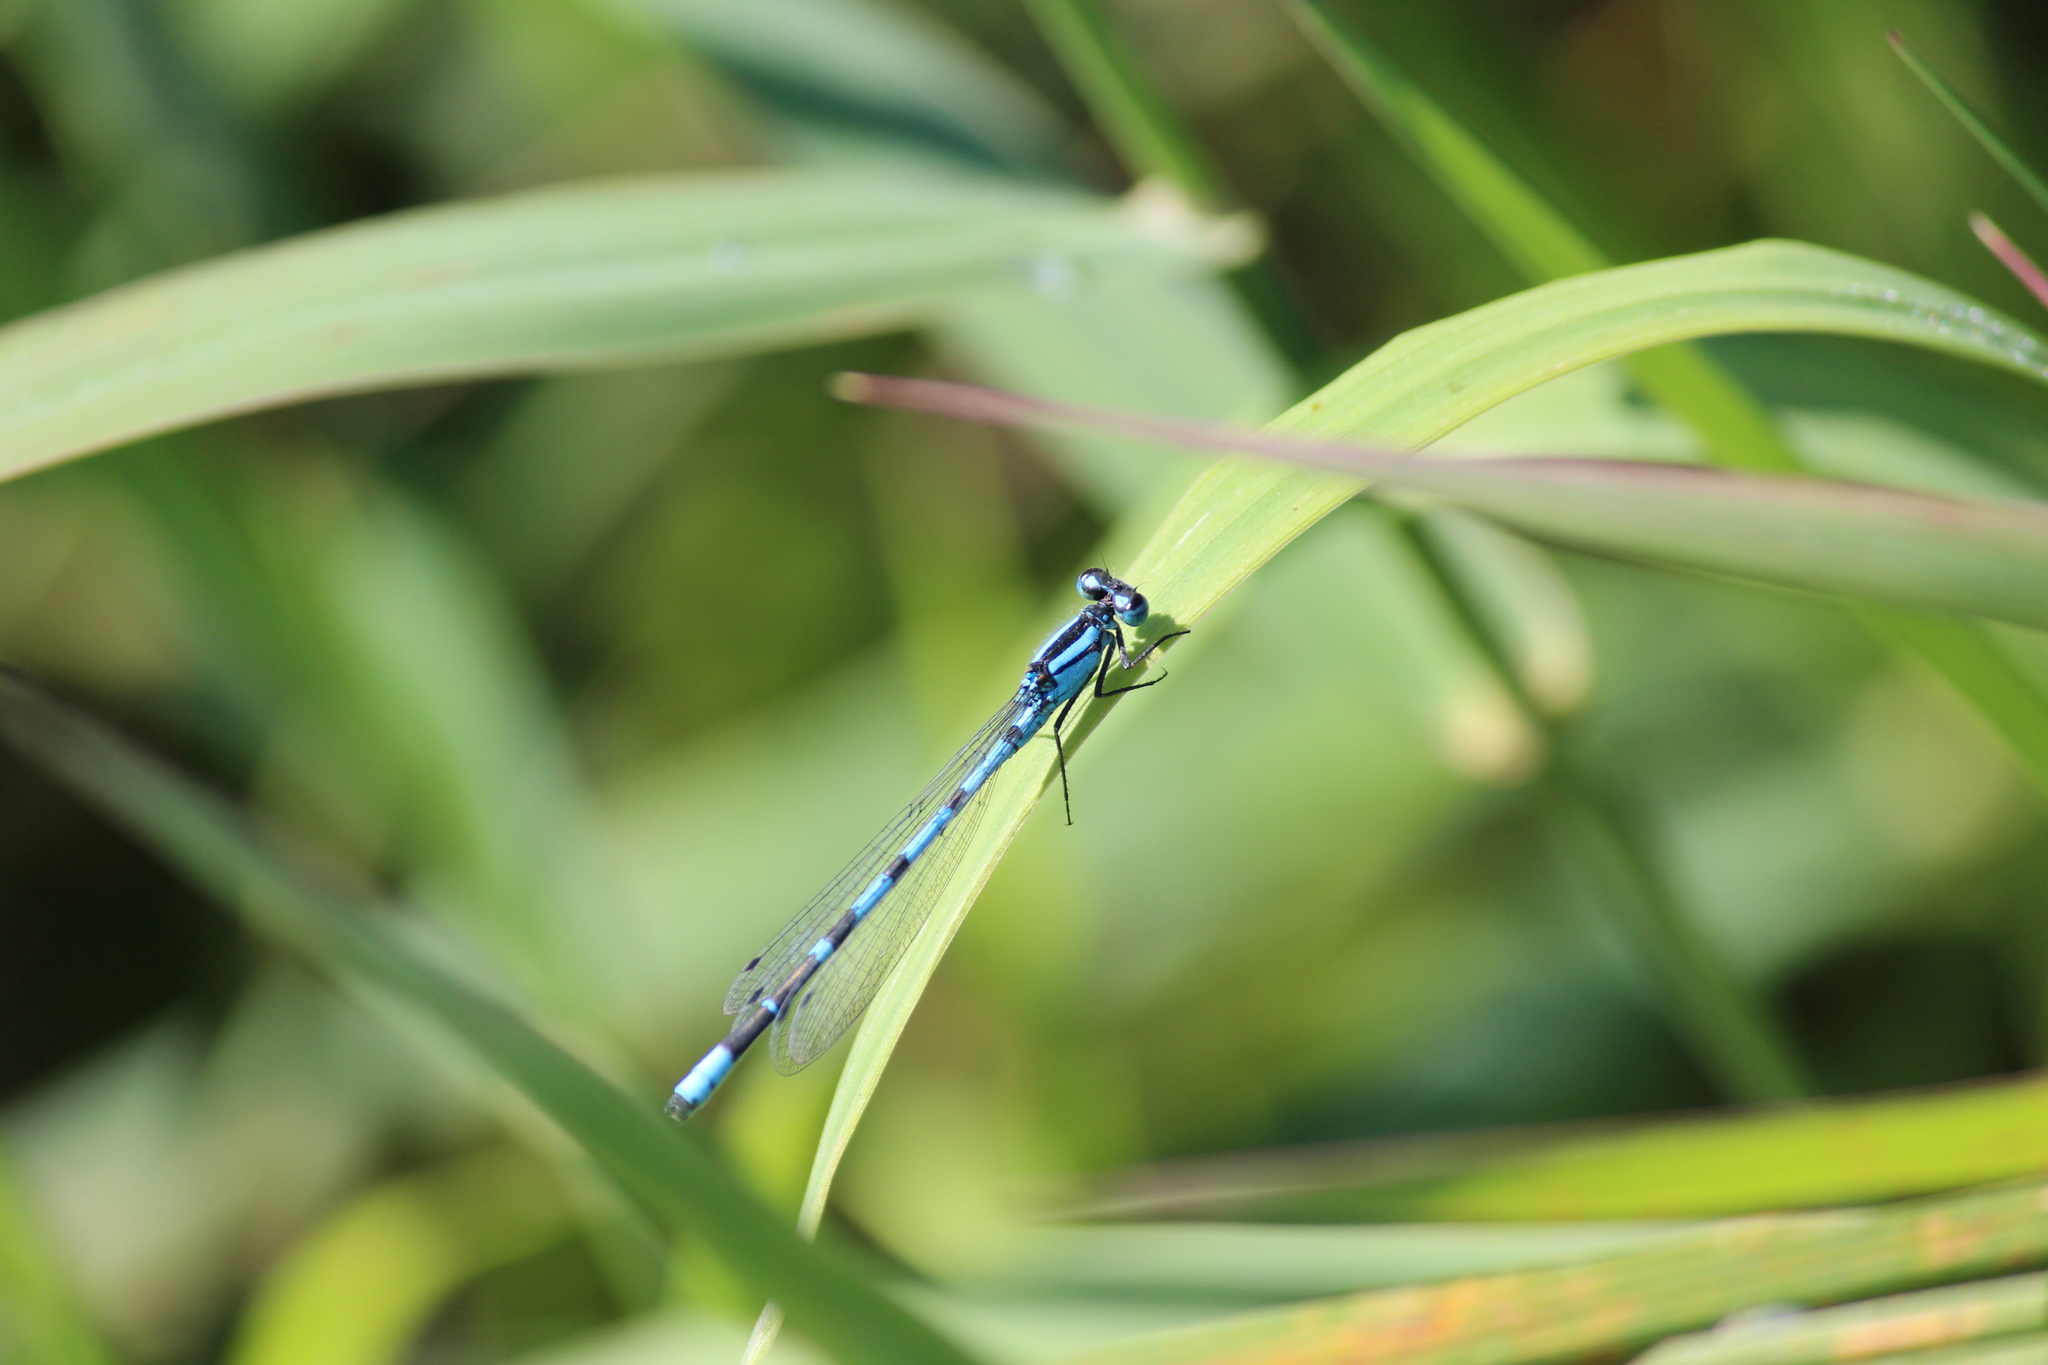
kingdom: Animalia
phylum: Arthropoda
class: Insecta
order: Odonata
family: Coenagrionidae
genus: Enallagma
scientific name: Enallagma cyathigerum
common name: Common blue damselfly
